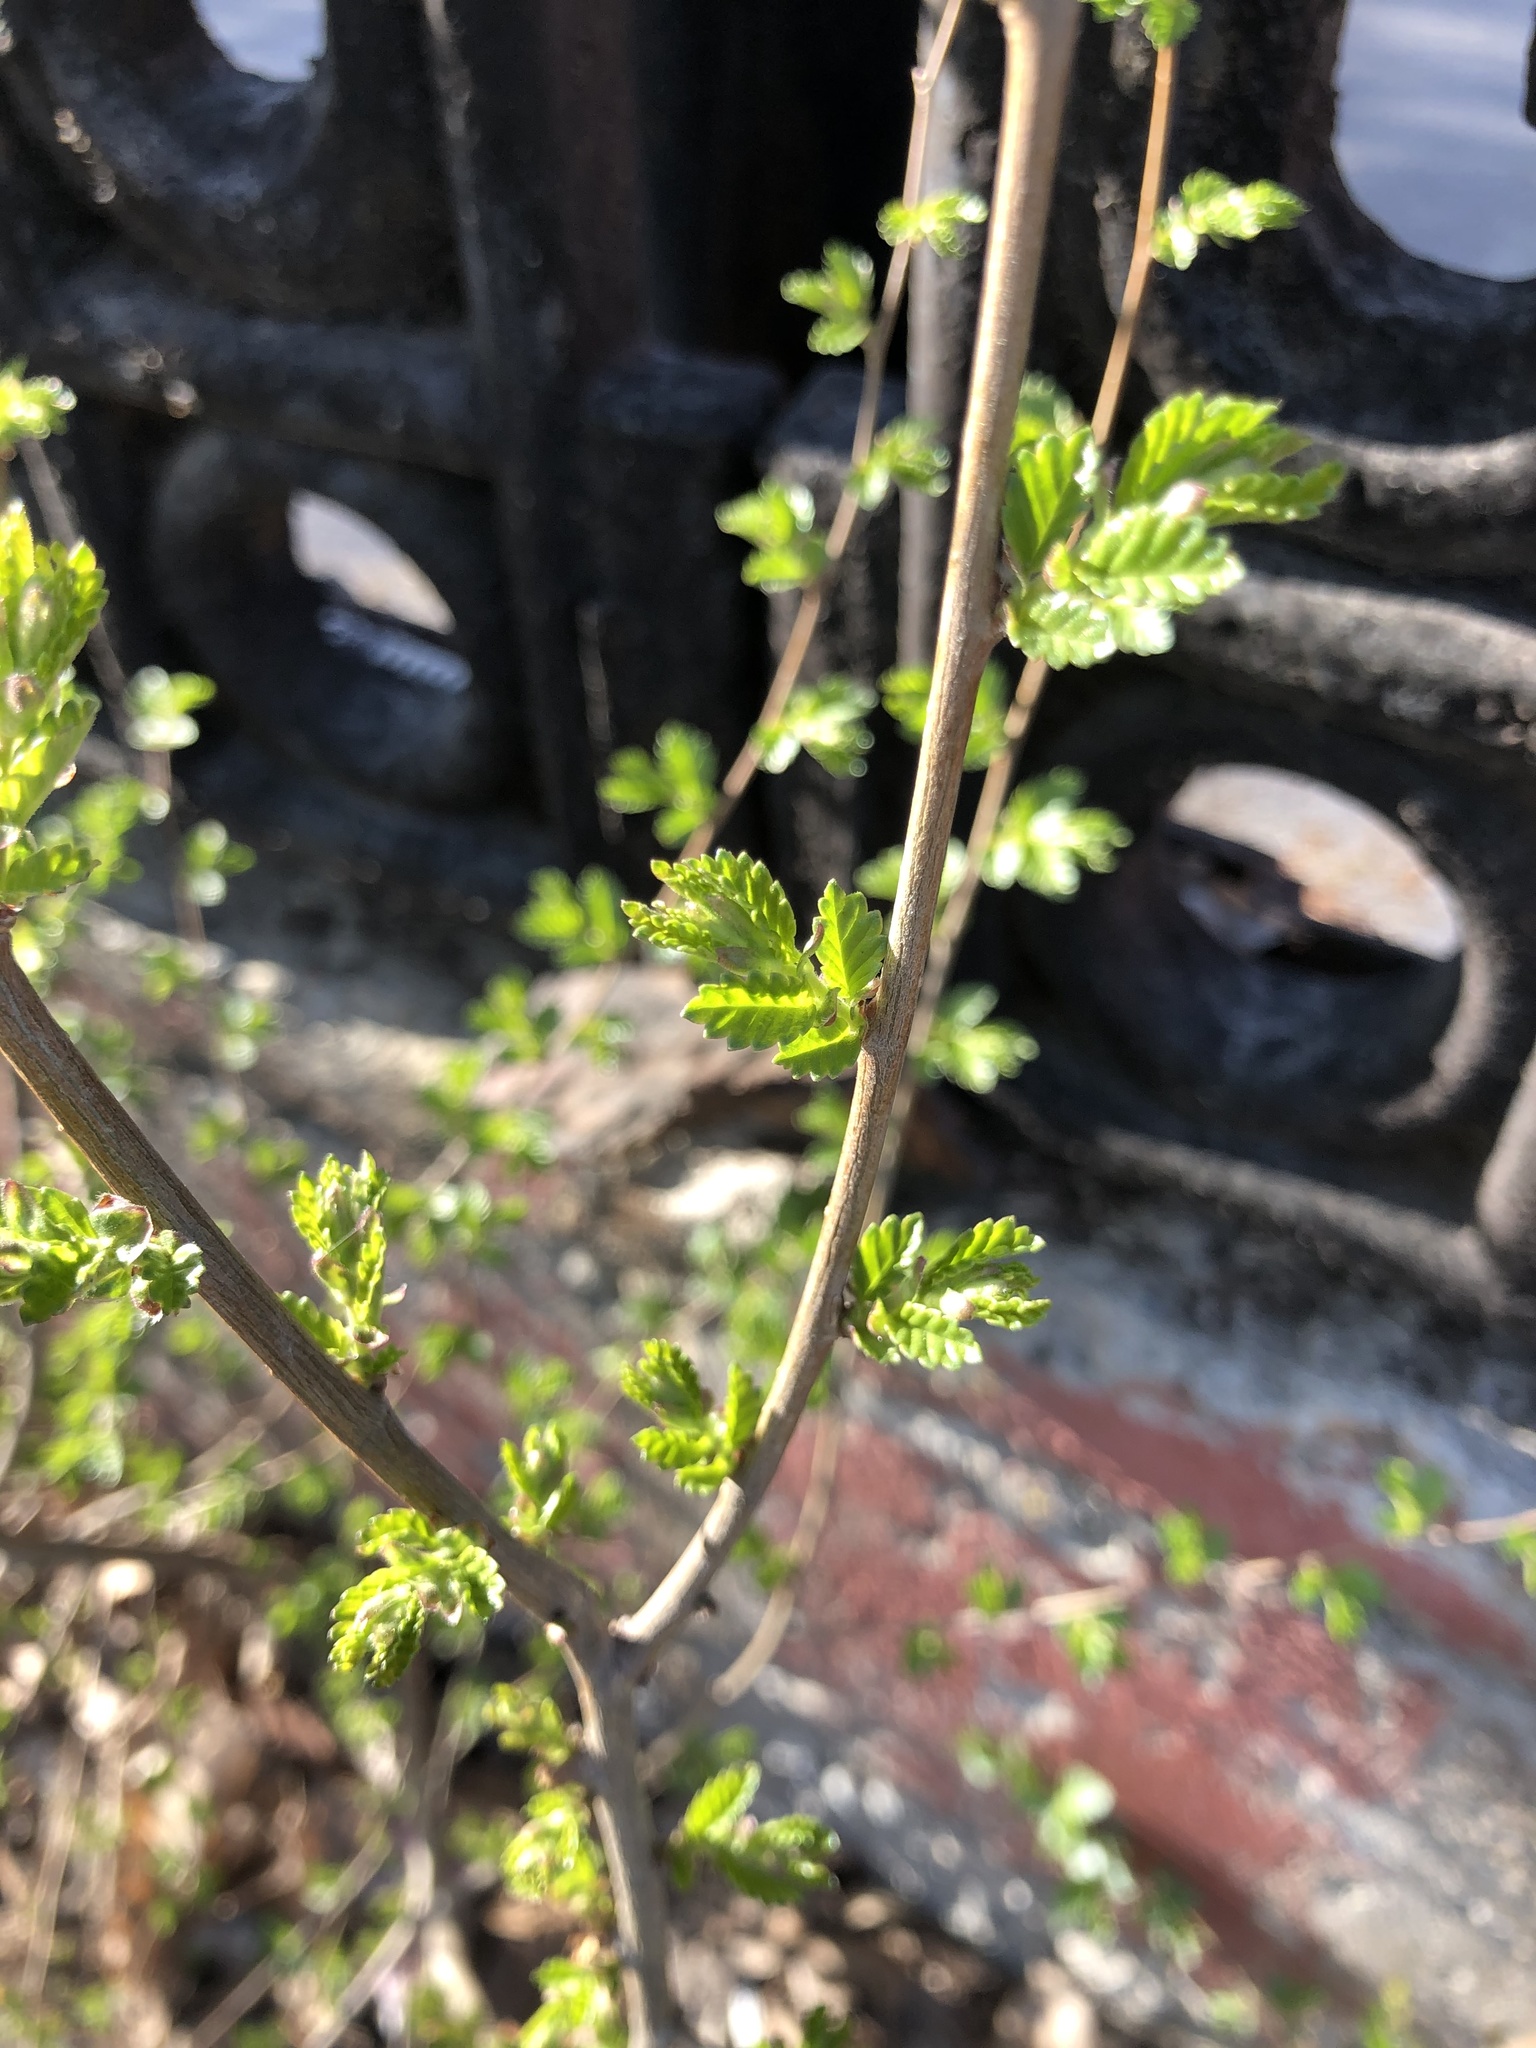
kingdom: Plantae
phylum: Tracheophyta
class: Magnoliopsida
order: Rosales
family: Ulmaceae
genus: Ulmus
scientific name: Ulmus pumila
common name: Siberian elm
